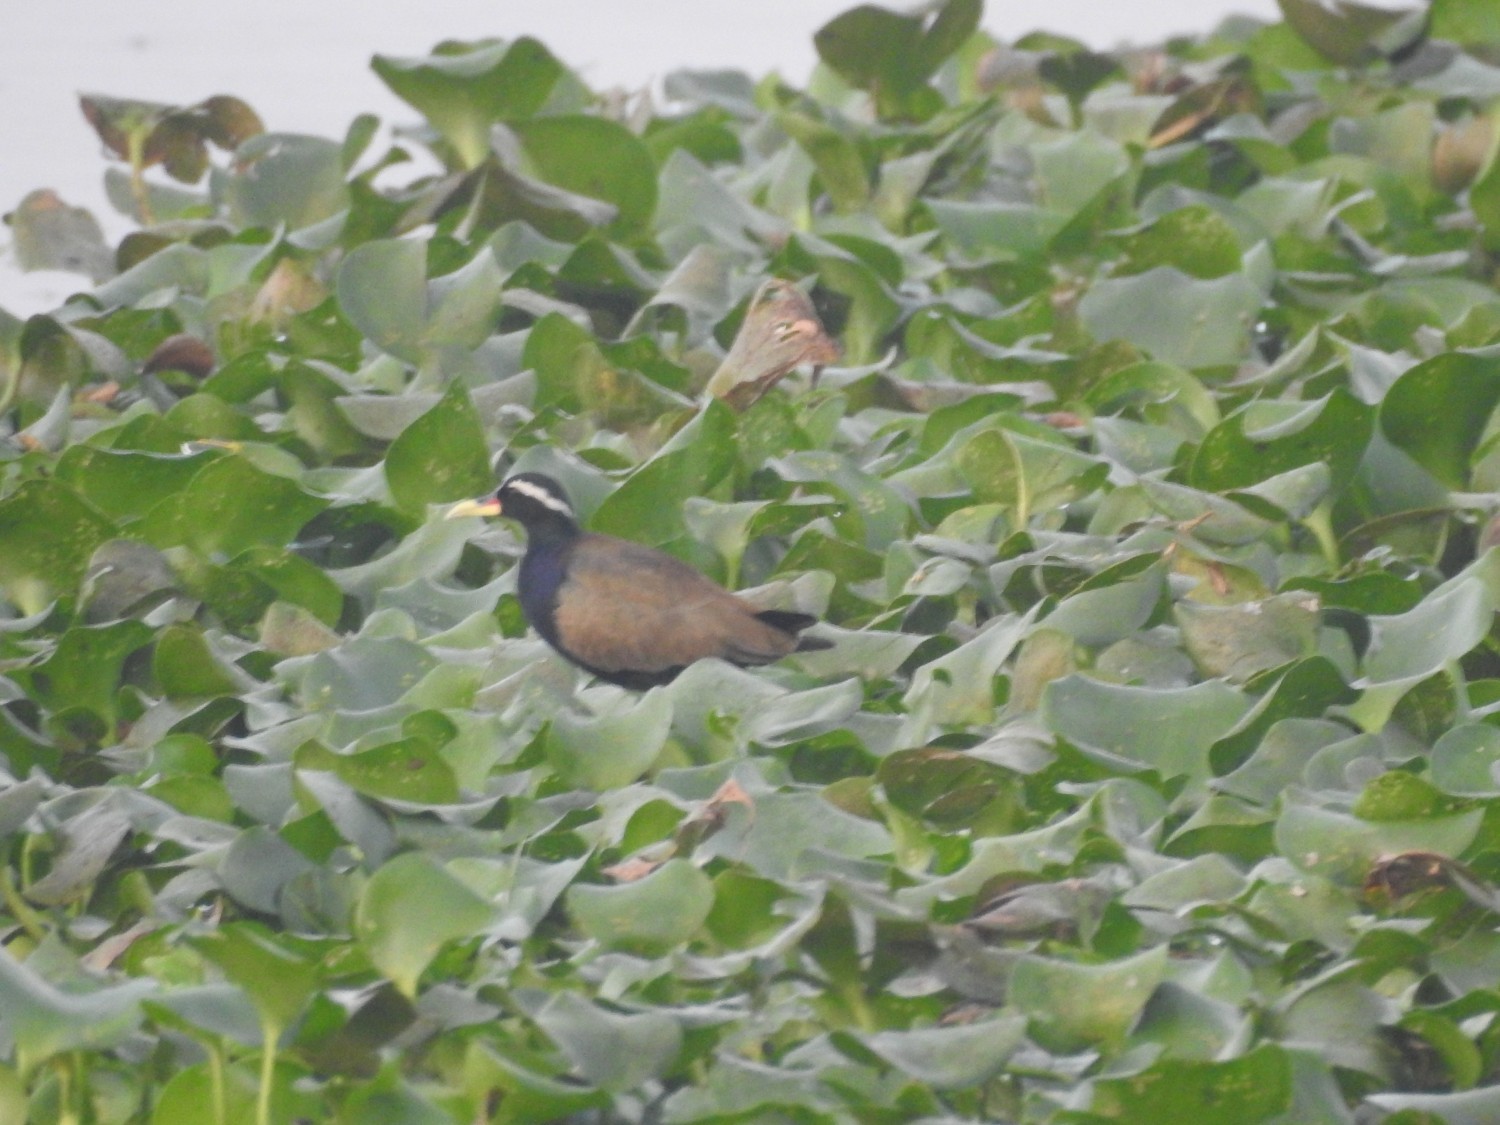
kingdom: Animalia
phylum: Chordata
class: Aves
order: Charadriiformes
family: Jacanidae
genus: Metopidius
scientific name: Metopidius indicus
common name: Bronze-winged jacana
